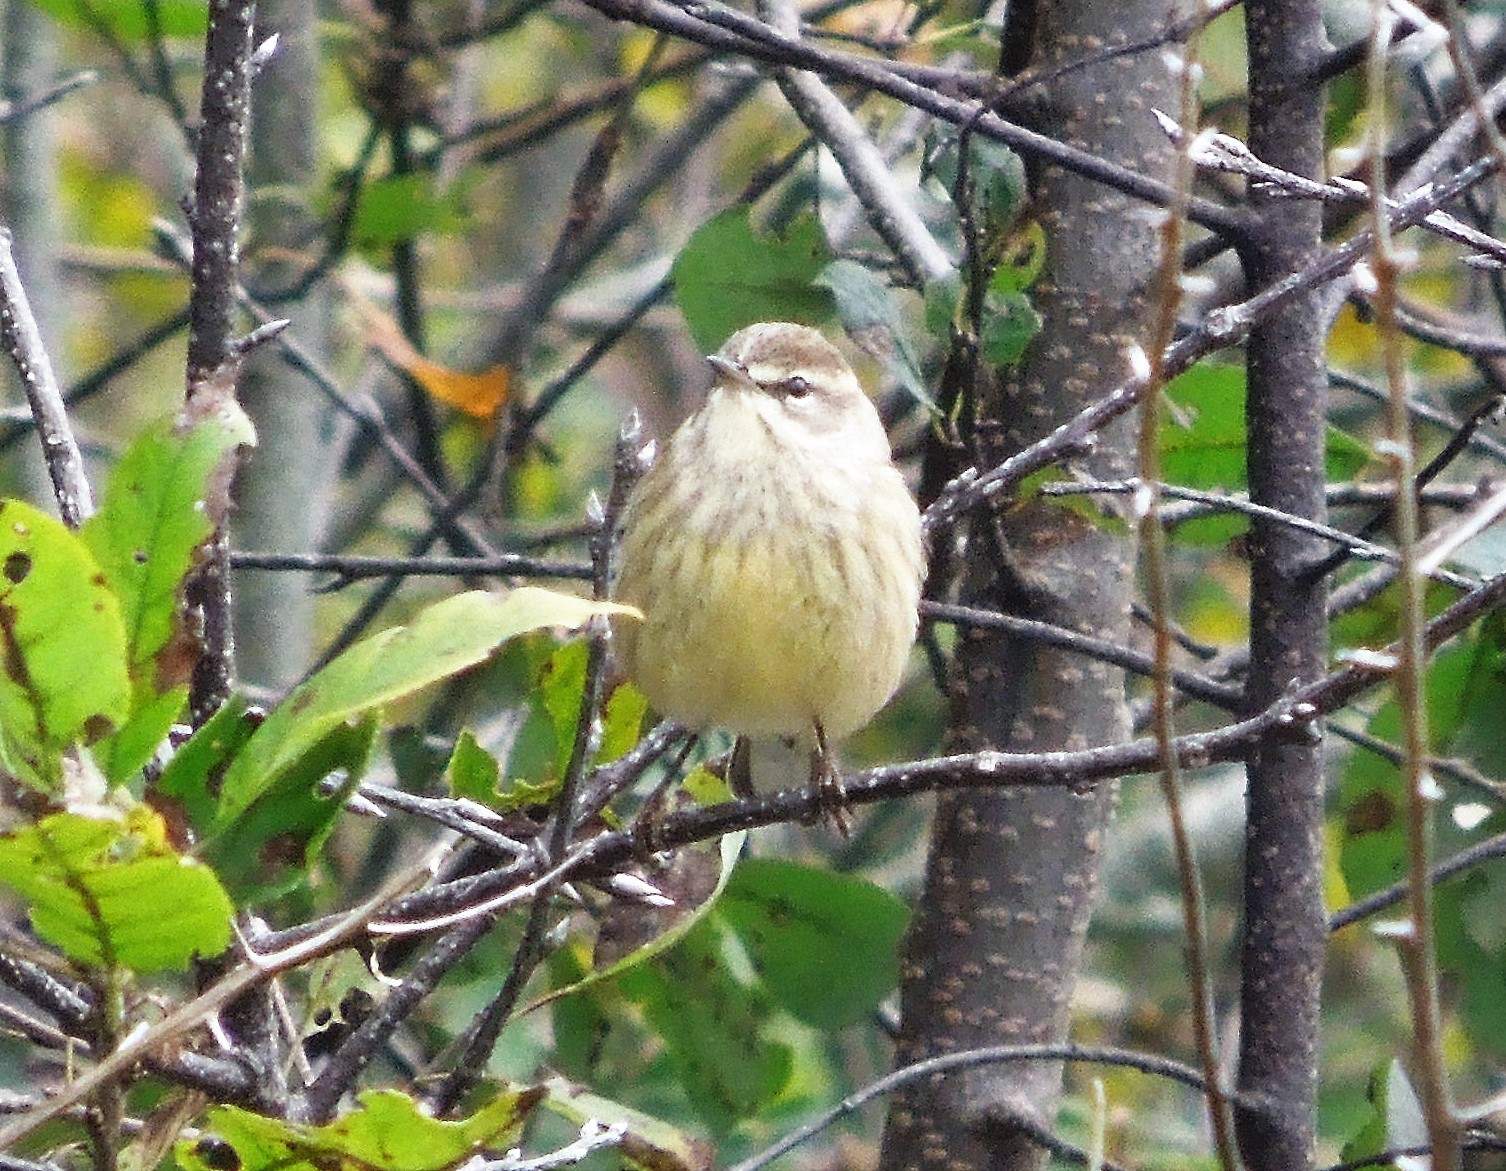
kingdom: Animalia
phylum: Chordata
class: Aves
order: Passeriformes
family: Parulidae
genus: Setophaga
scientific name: Setophaga palmarum
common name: Palm warbler
